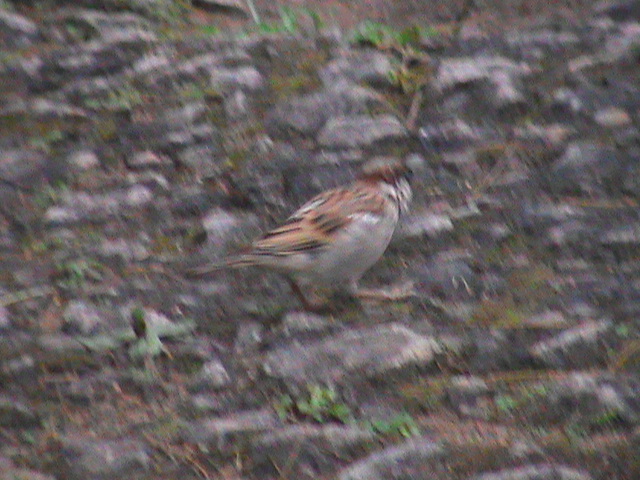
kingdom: Animalia
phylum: Chordata
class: Aves
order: Passeriformes
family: Passeridae
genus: Passer
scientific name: Passer domesticus
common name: House sparrow
